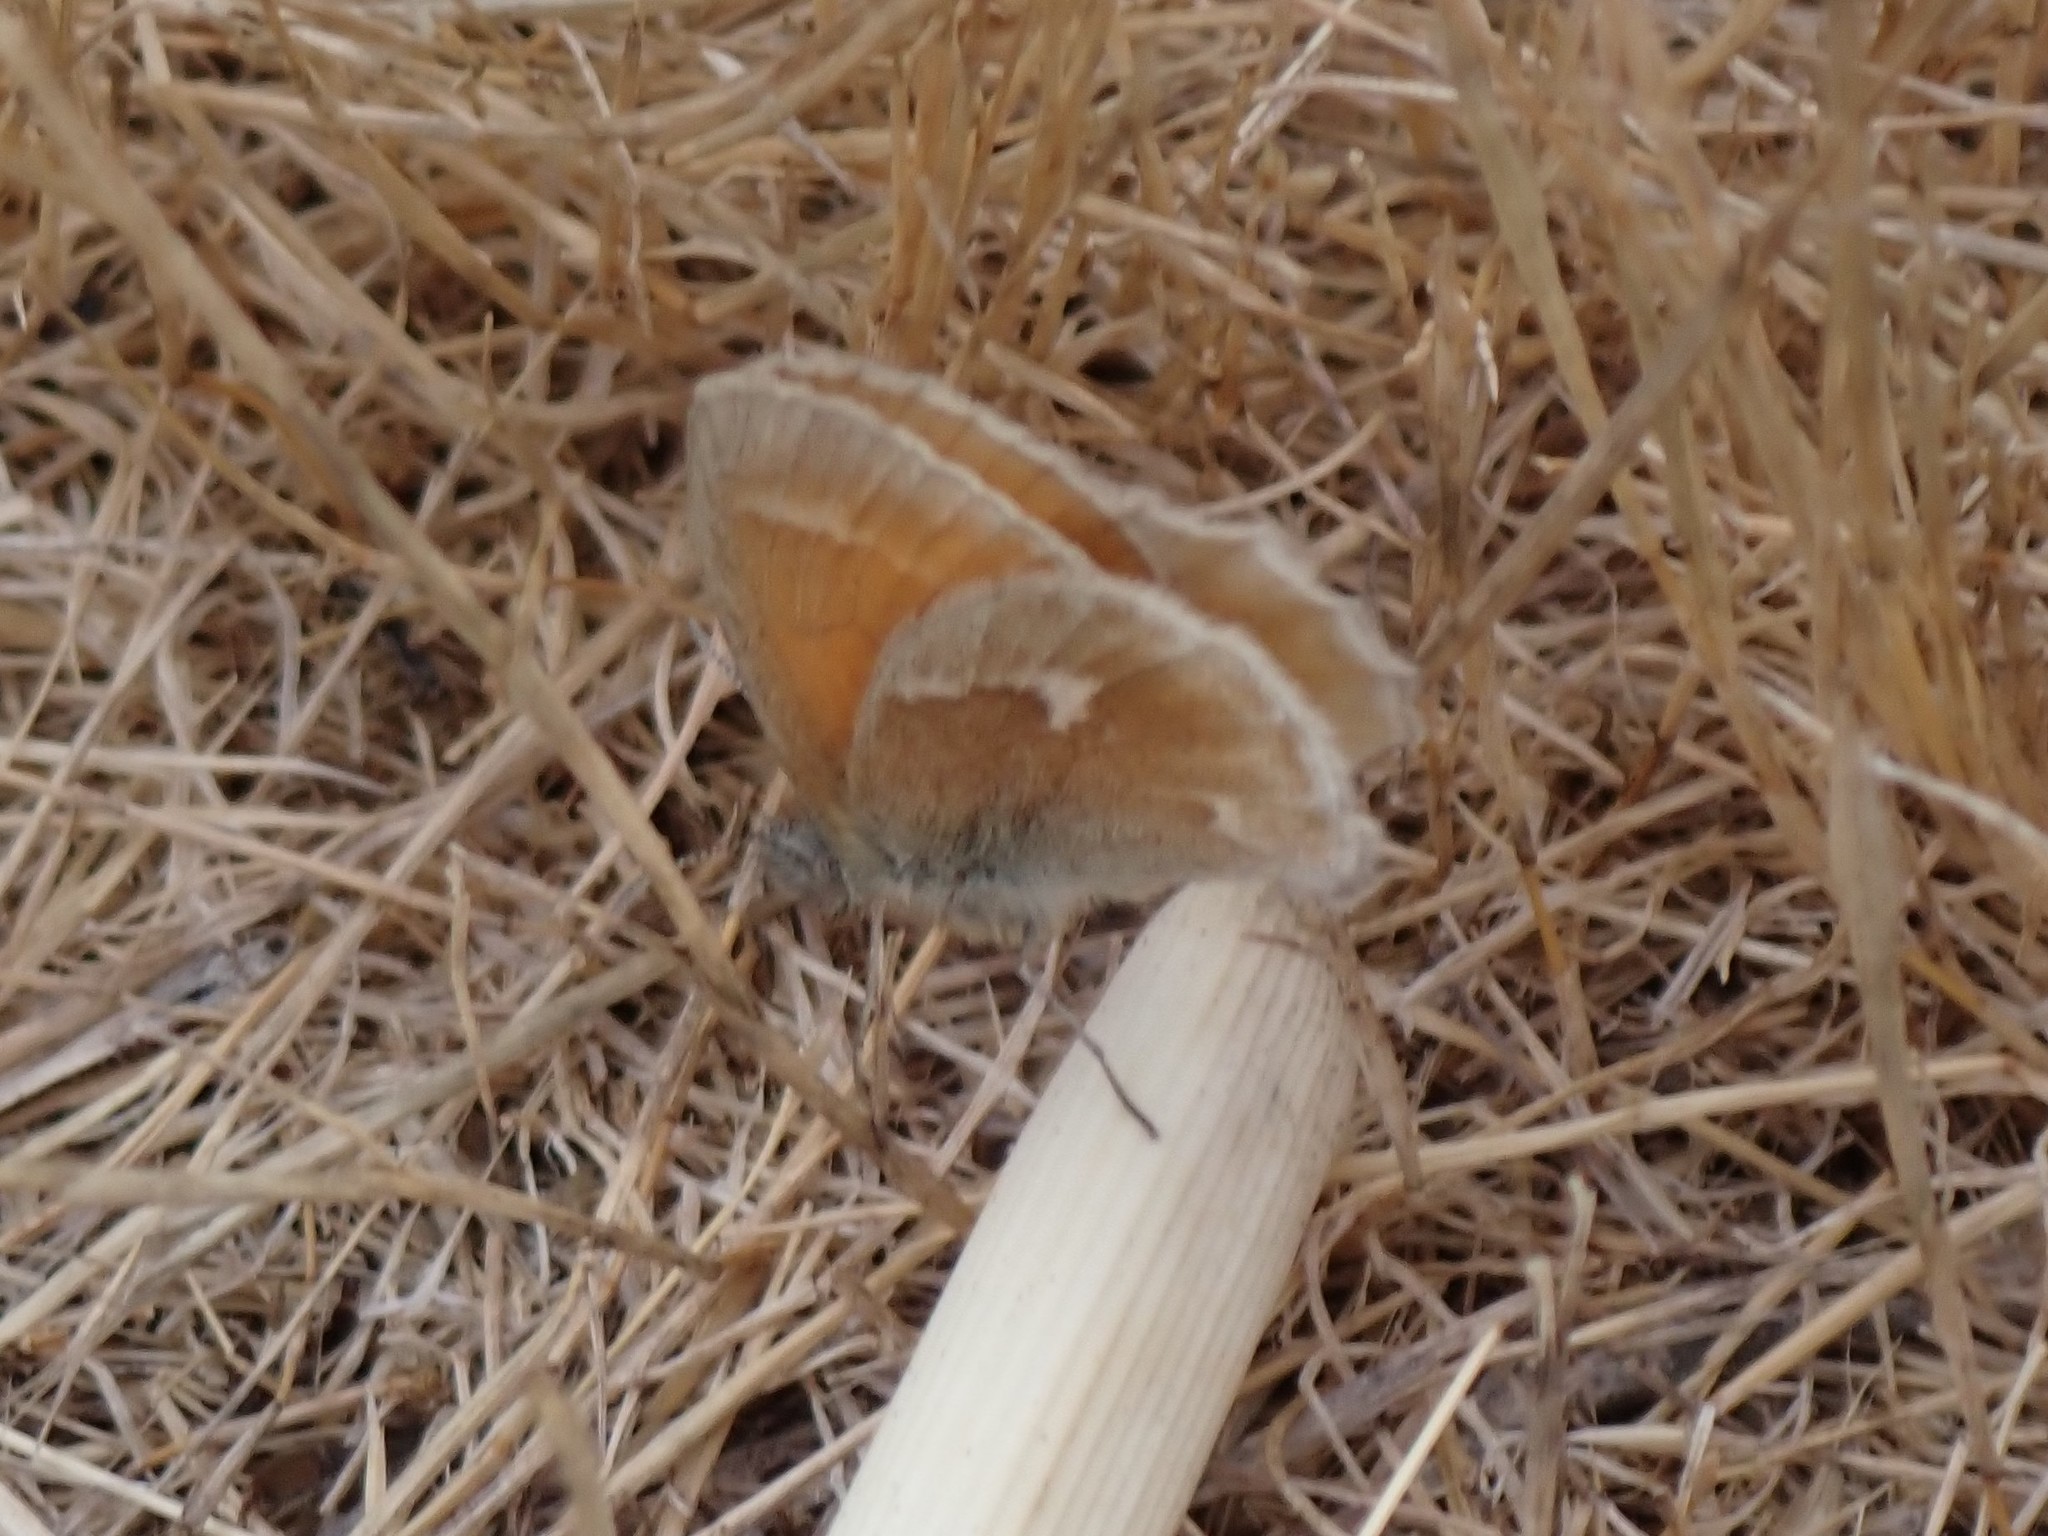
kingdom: Animalia
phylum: Arthropoda
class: Insecta
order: Lepidoptera
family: Nymphalidae
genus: Coenonympha
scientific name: Coenonympha california
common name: Common ringlet
